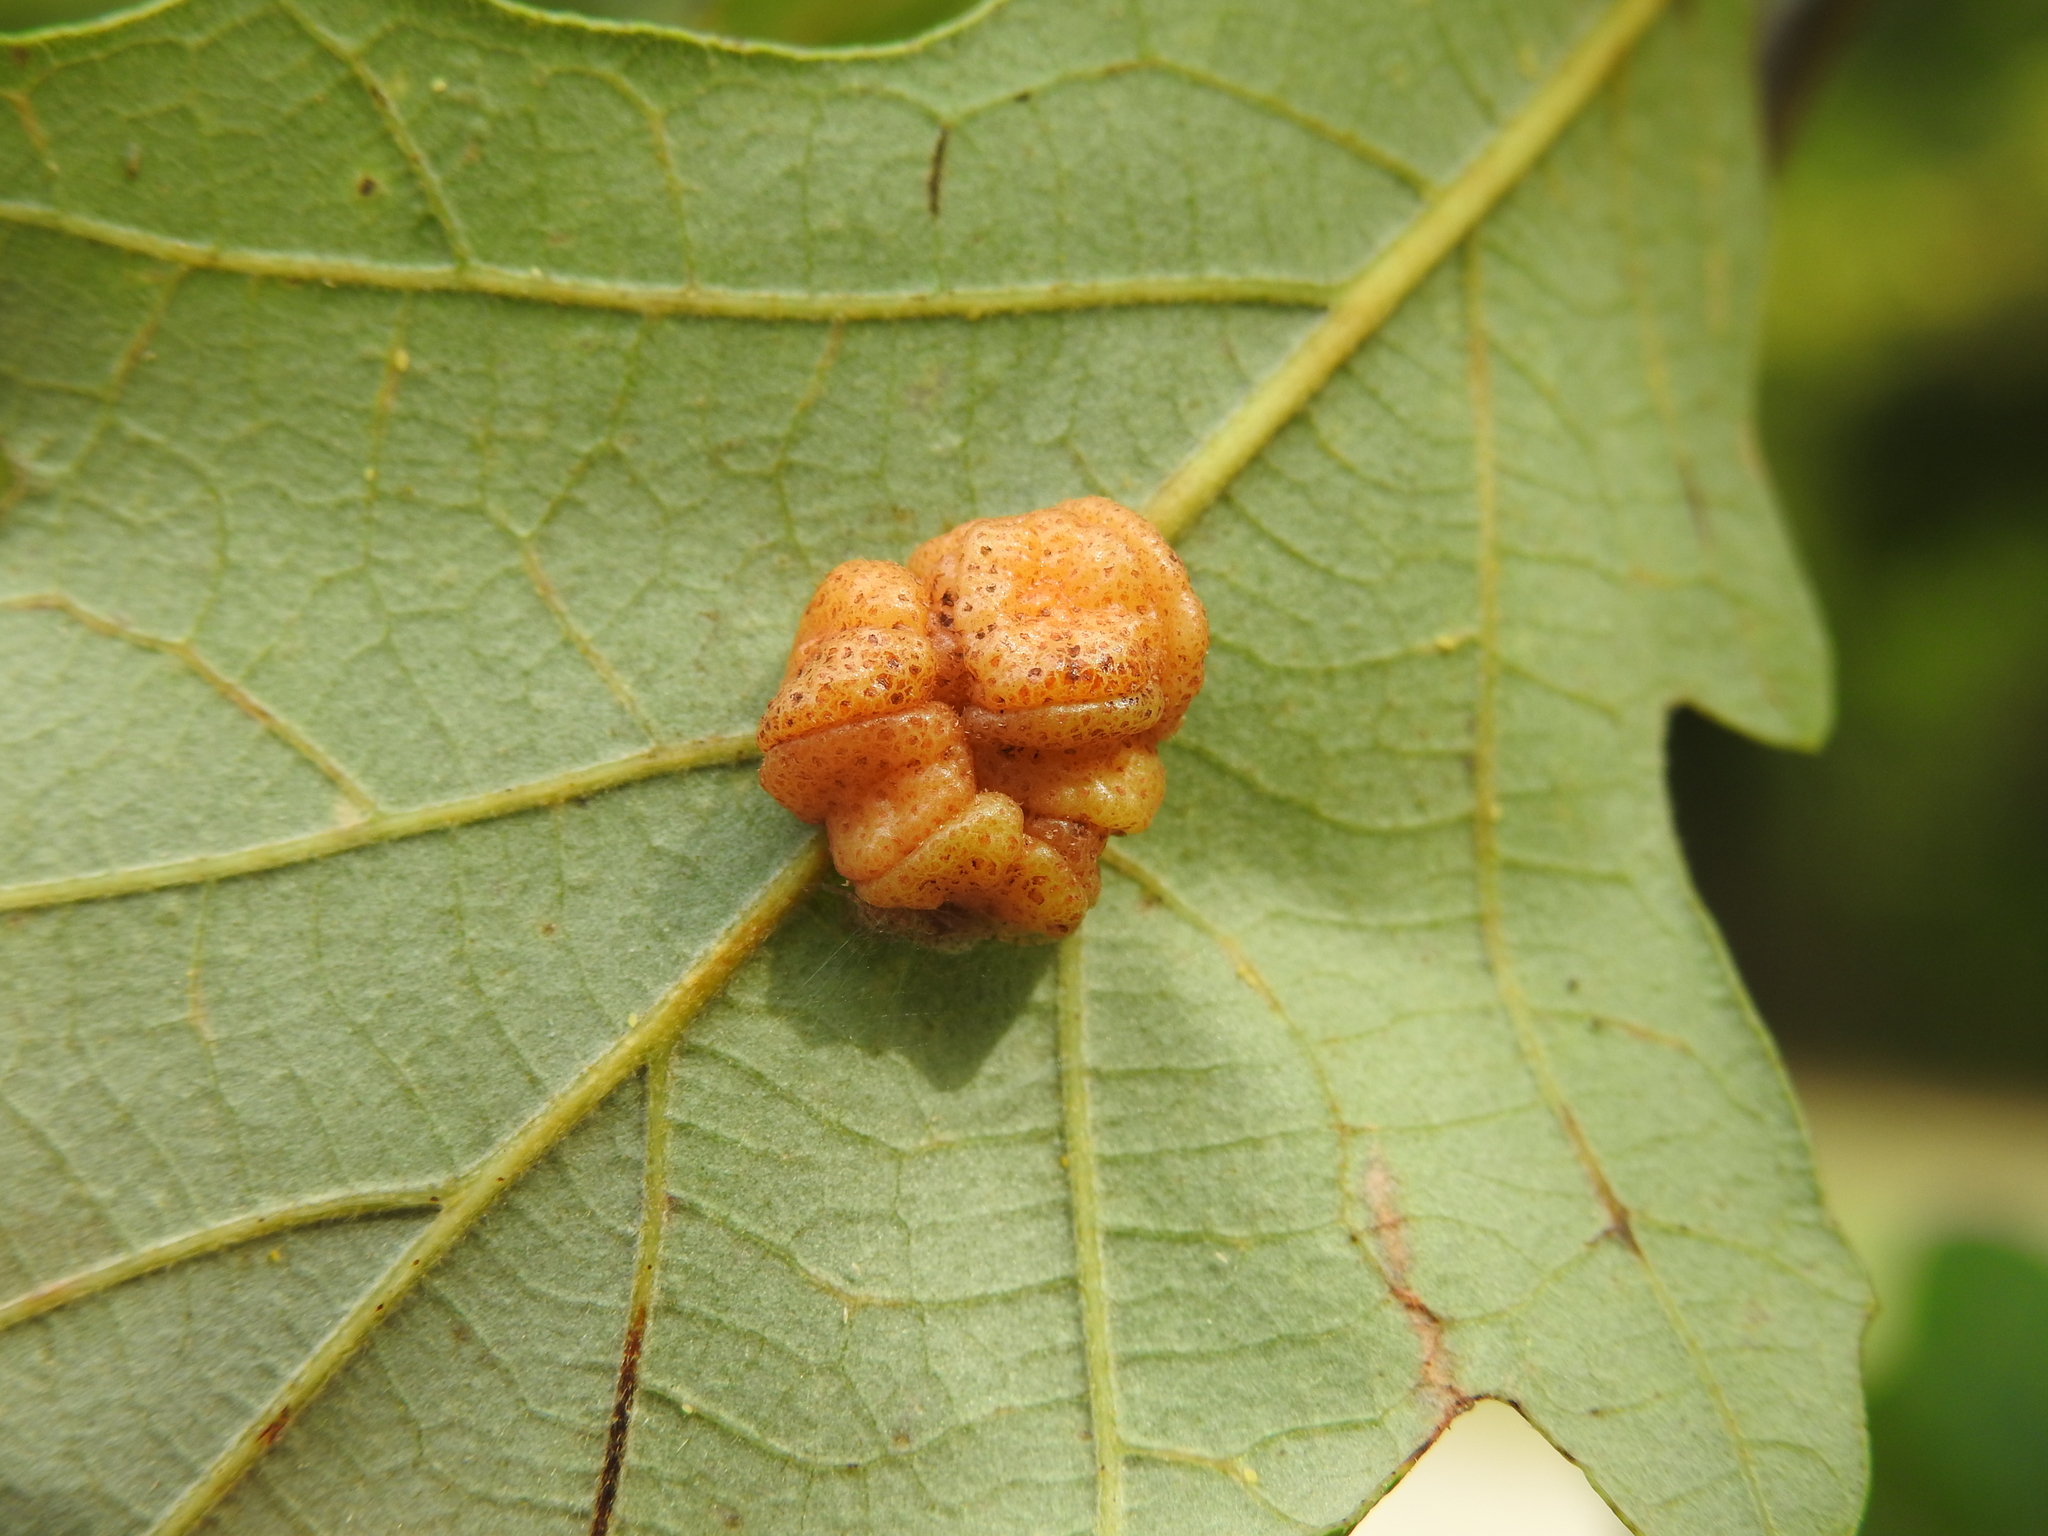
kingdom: Animalia
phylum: Arthropoda
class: Insecta
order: Hymenoptera
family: Cynipidae
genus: Andricus
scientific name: Andricus
